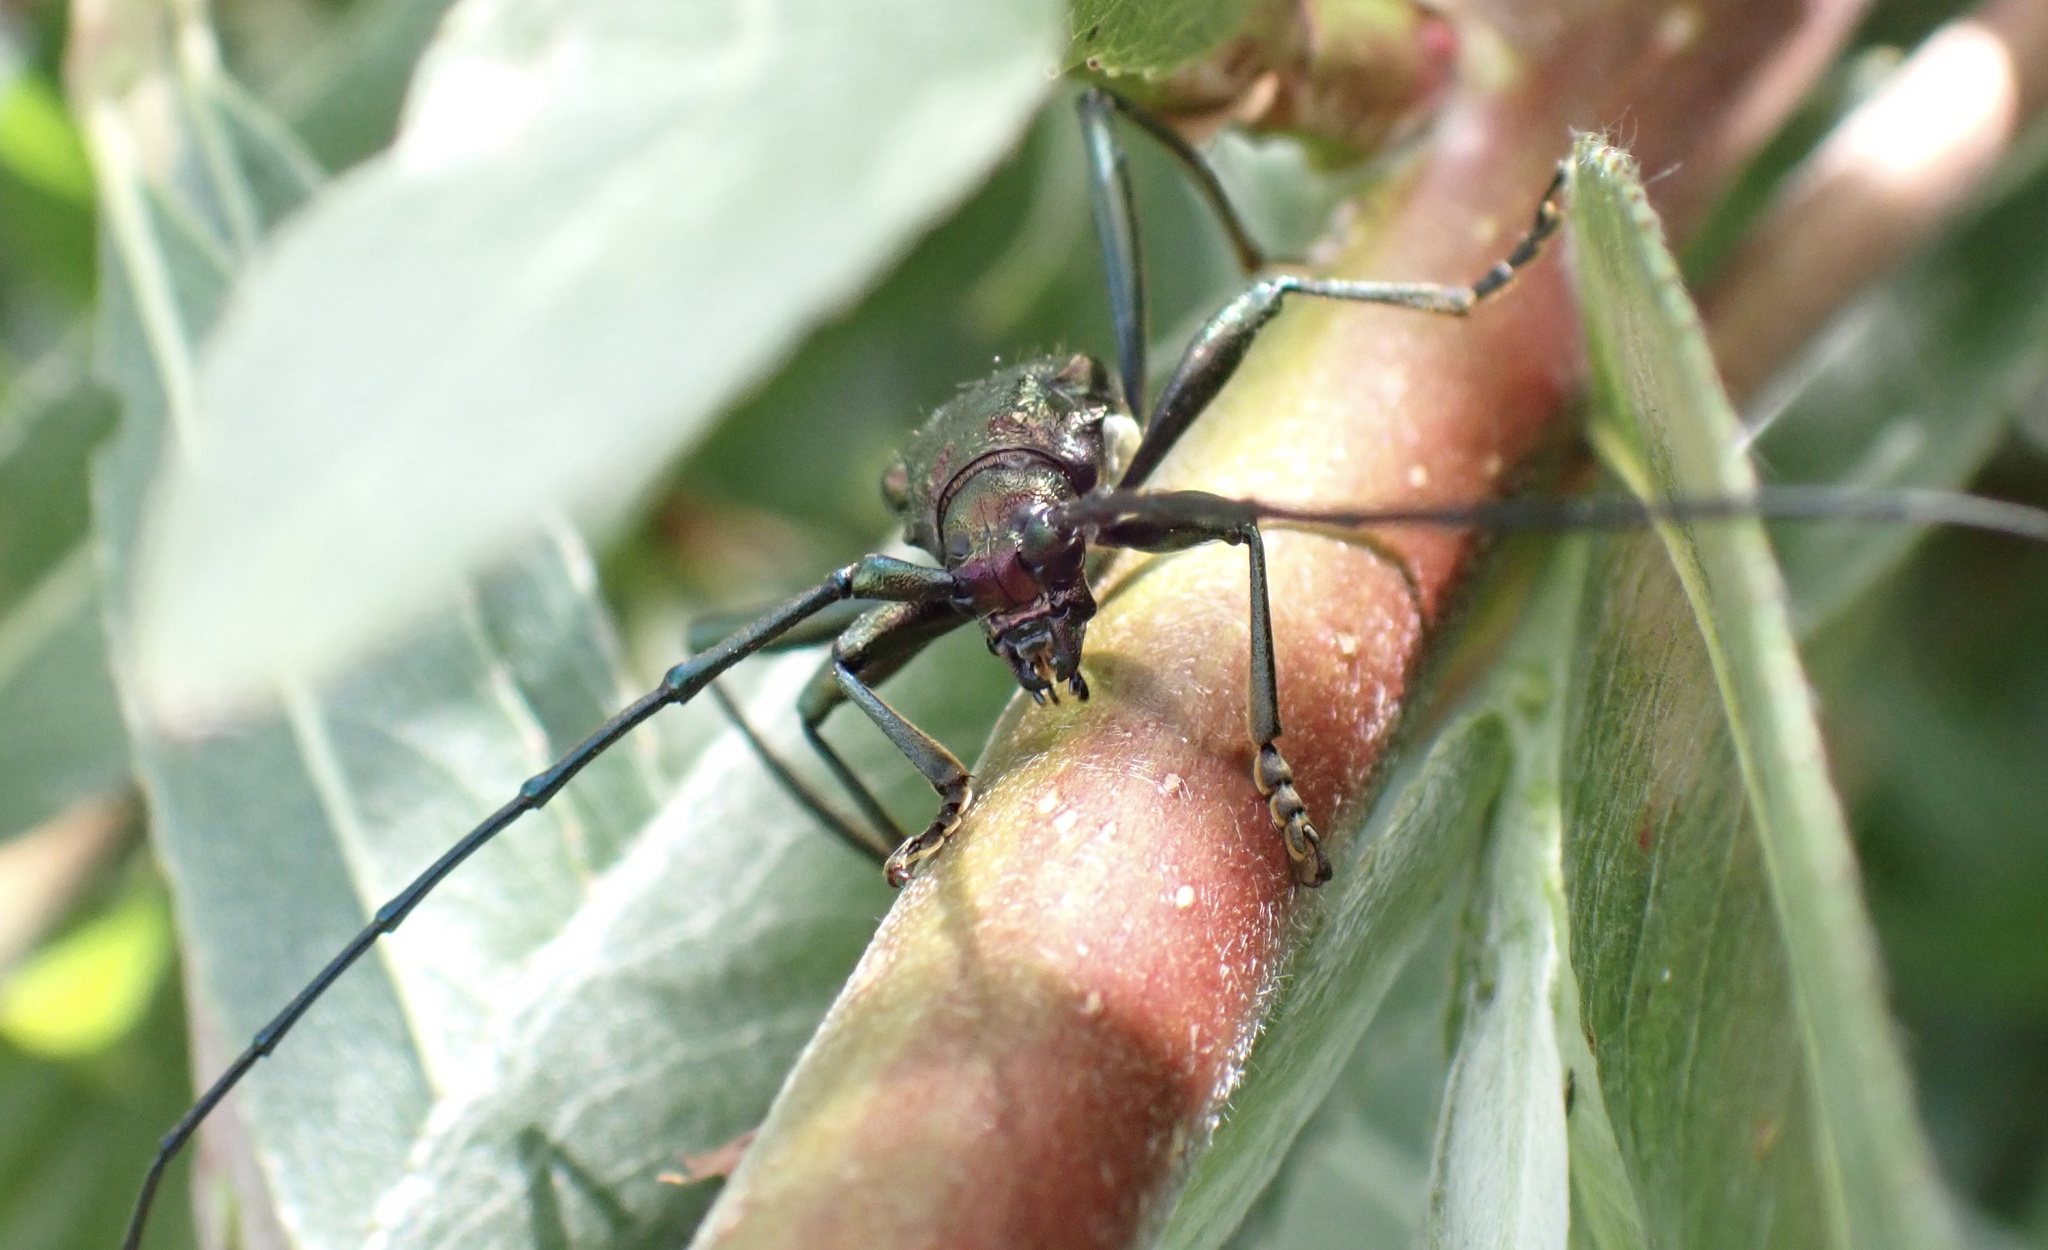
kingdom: Animalia
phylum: Arthropoda
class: Insecta
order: Coleoptera
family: Cerambycidae
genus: Aromia
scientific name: Aromia moschata
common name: Musk beetle
